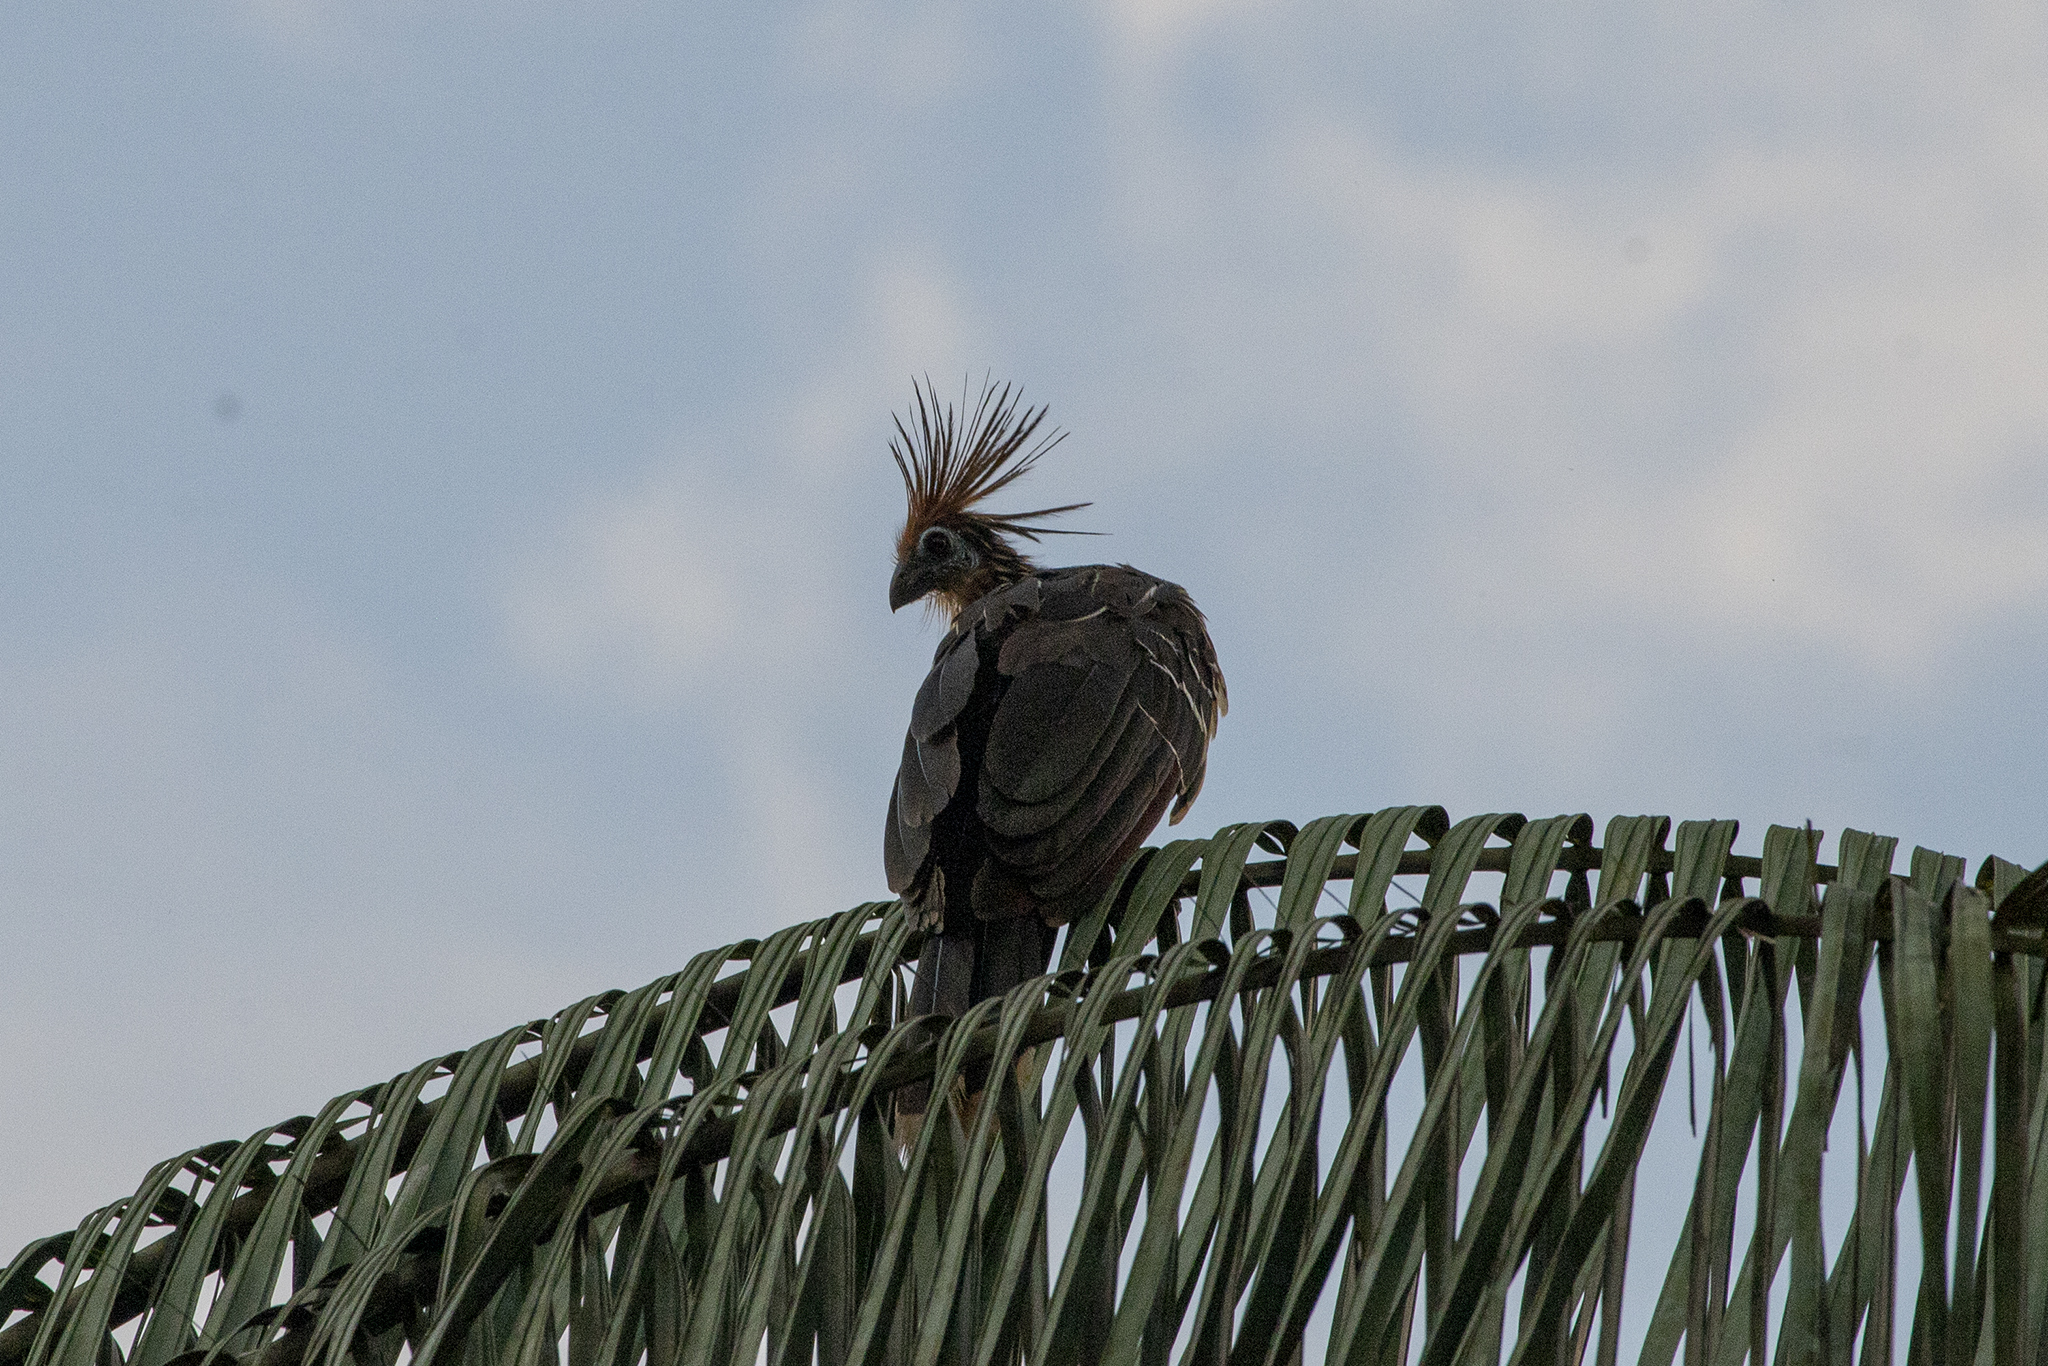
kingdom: Animalia
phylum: Chordata
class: Aves
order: Opisthocomiformes
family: Opisthocomidae
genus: Opisthocomus
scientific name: Opisthocomus hoazin
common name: Hoatzin
